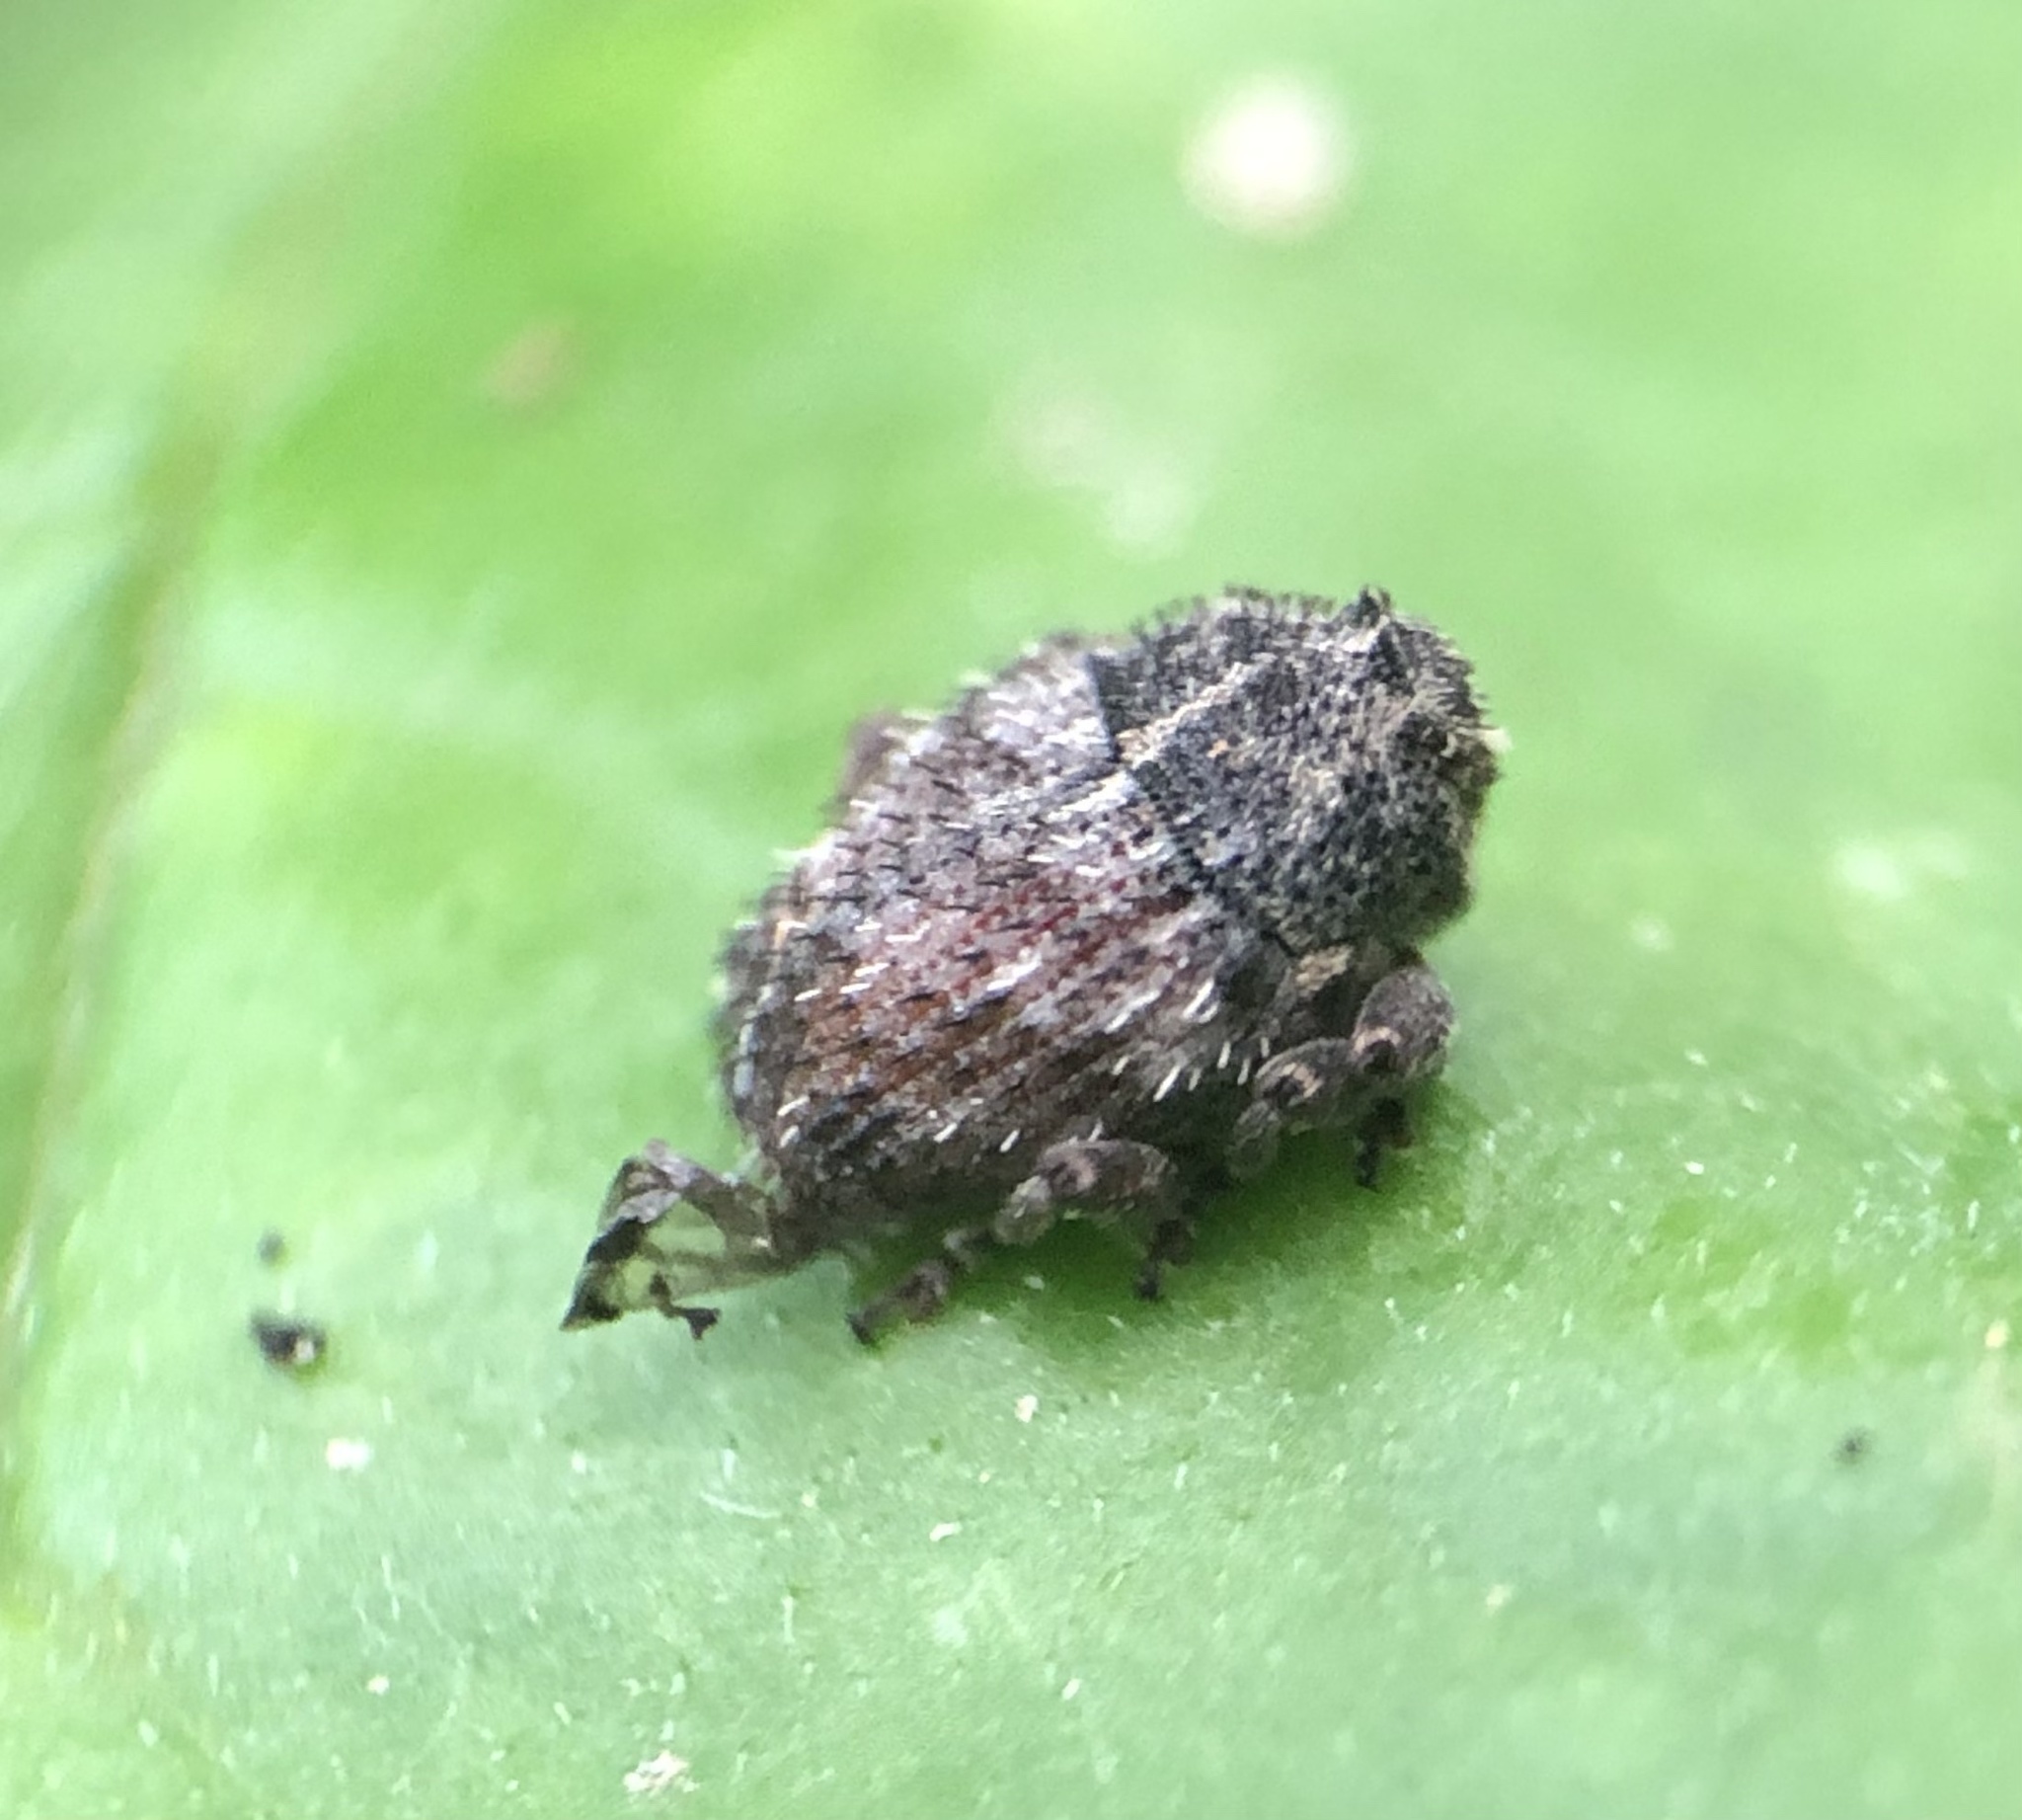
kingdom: Animalia
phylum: Arthropoda
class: Insecta
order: Coleoptera
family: Curculionidae
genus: Trichosirocalus
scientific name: Trichosirocalus horridus
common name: Musk thistle rosette weevil
